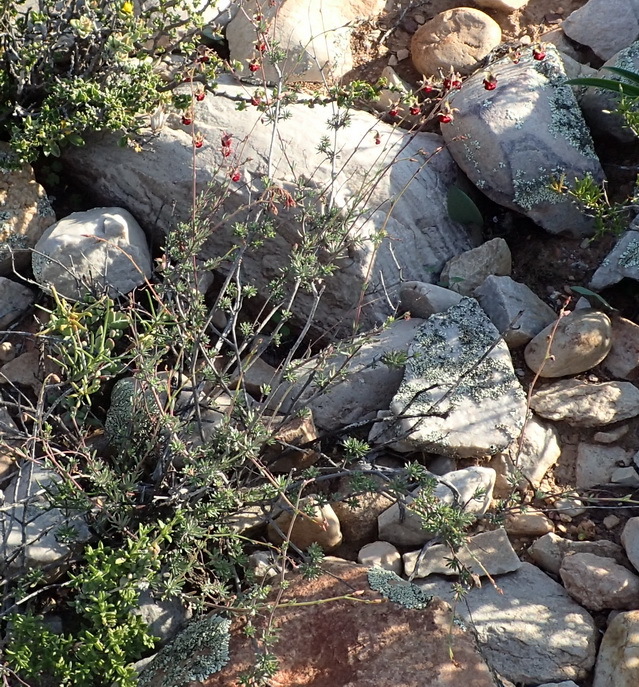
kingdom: Plantae
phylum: Tracheophyta
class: Magnoliopsida
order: Malvales
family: Malvaceae
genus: Hermannia
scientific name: Hermannia filifolia
